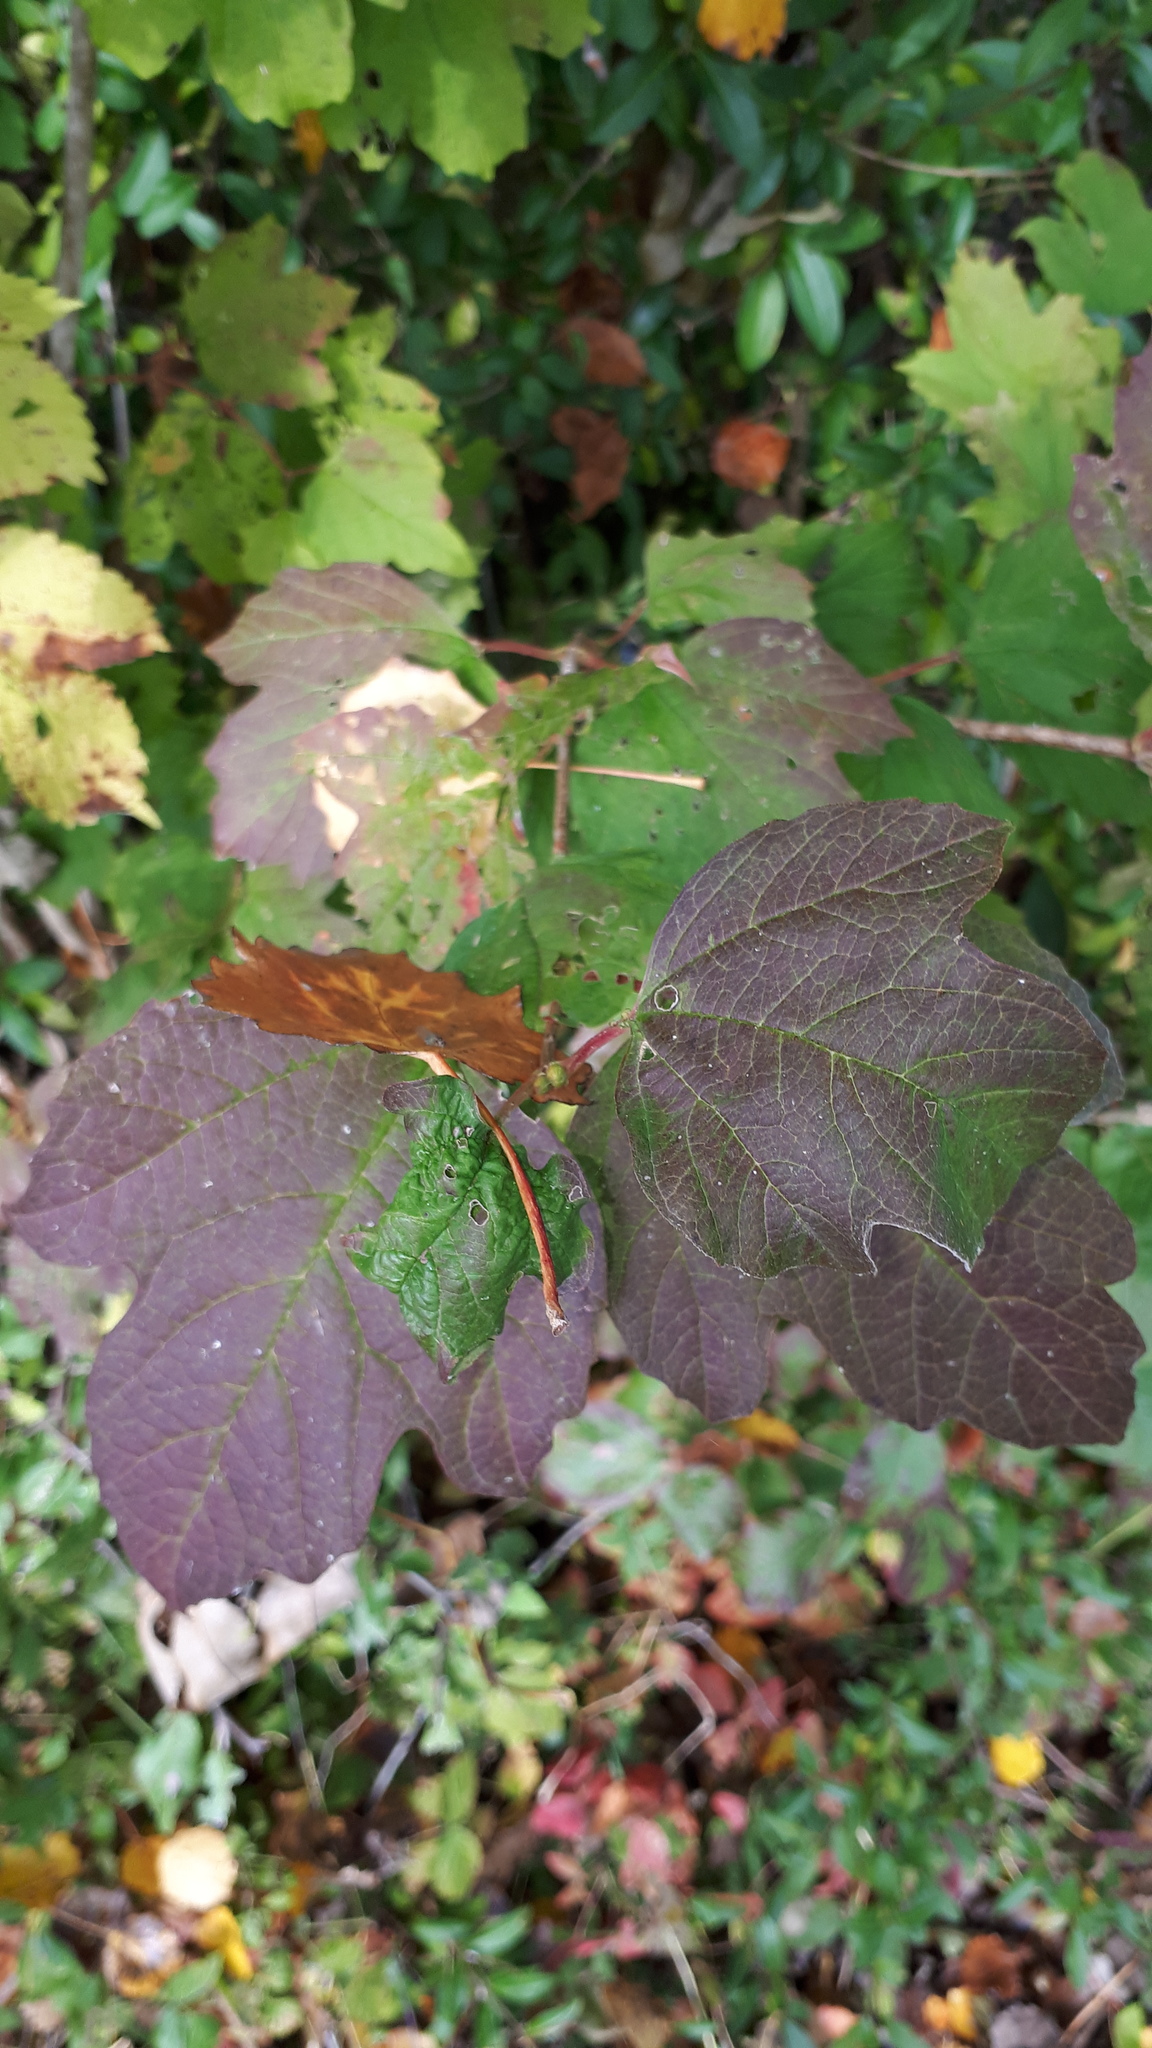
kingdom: Plantae
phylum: Tracheophyta
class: Magnoliopsida
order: Dipsacales
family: Viburnaceae
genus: Viburnum
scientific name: Viburnum opulus
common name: Guelder-rose
